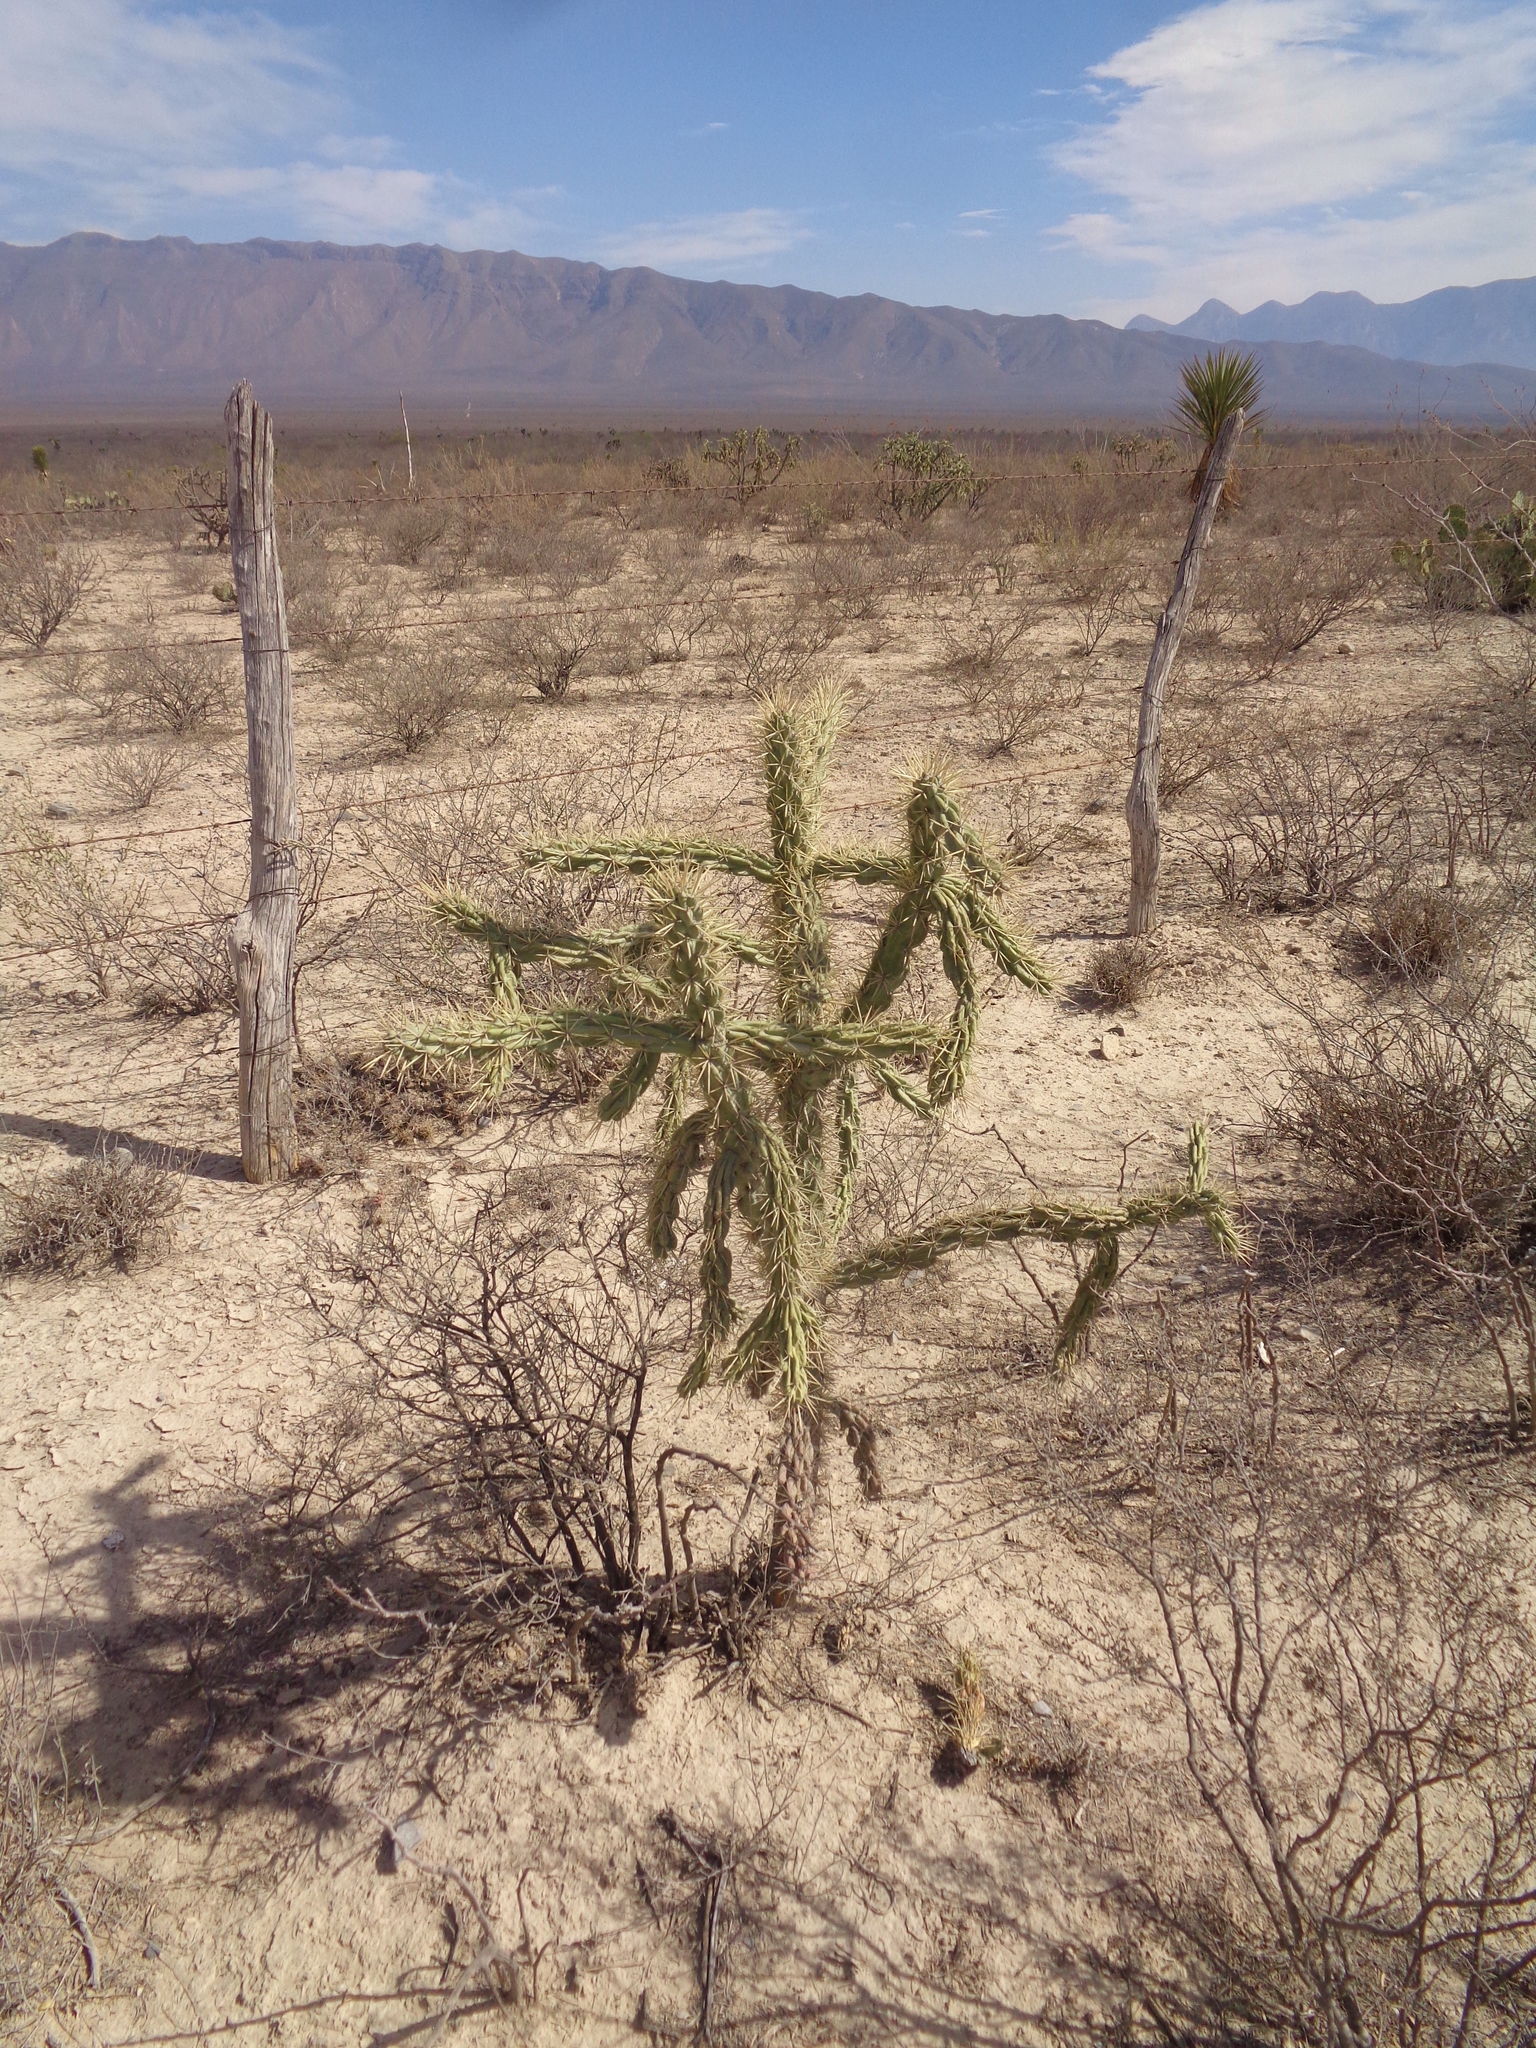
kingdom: Plantae
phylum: Tracheophyta
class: Magnoliopsida
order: Caryophyllales
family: Cactaceae
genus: Cylindropuntia
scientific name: Cylindropuntia imbricata
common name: Candelabrum cactus
